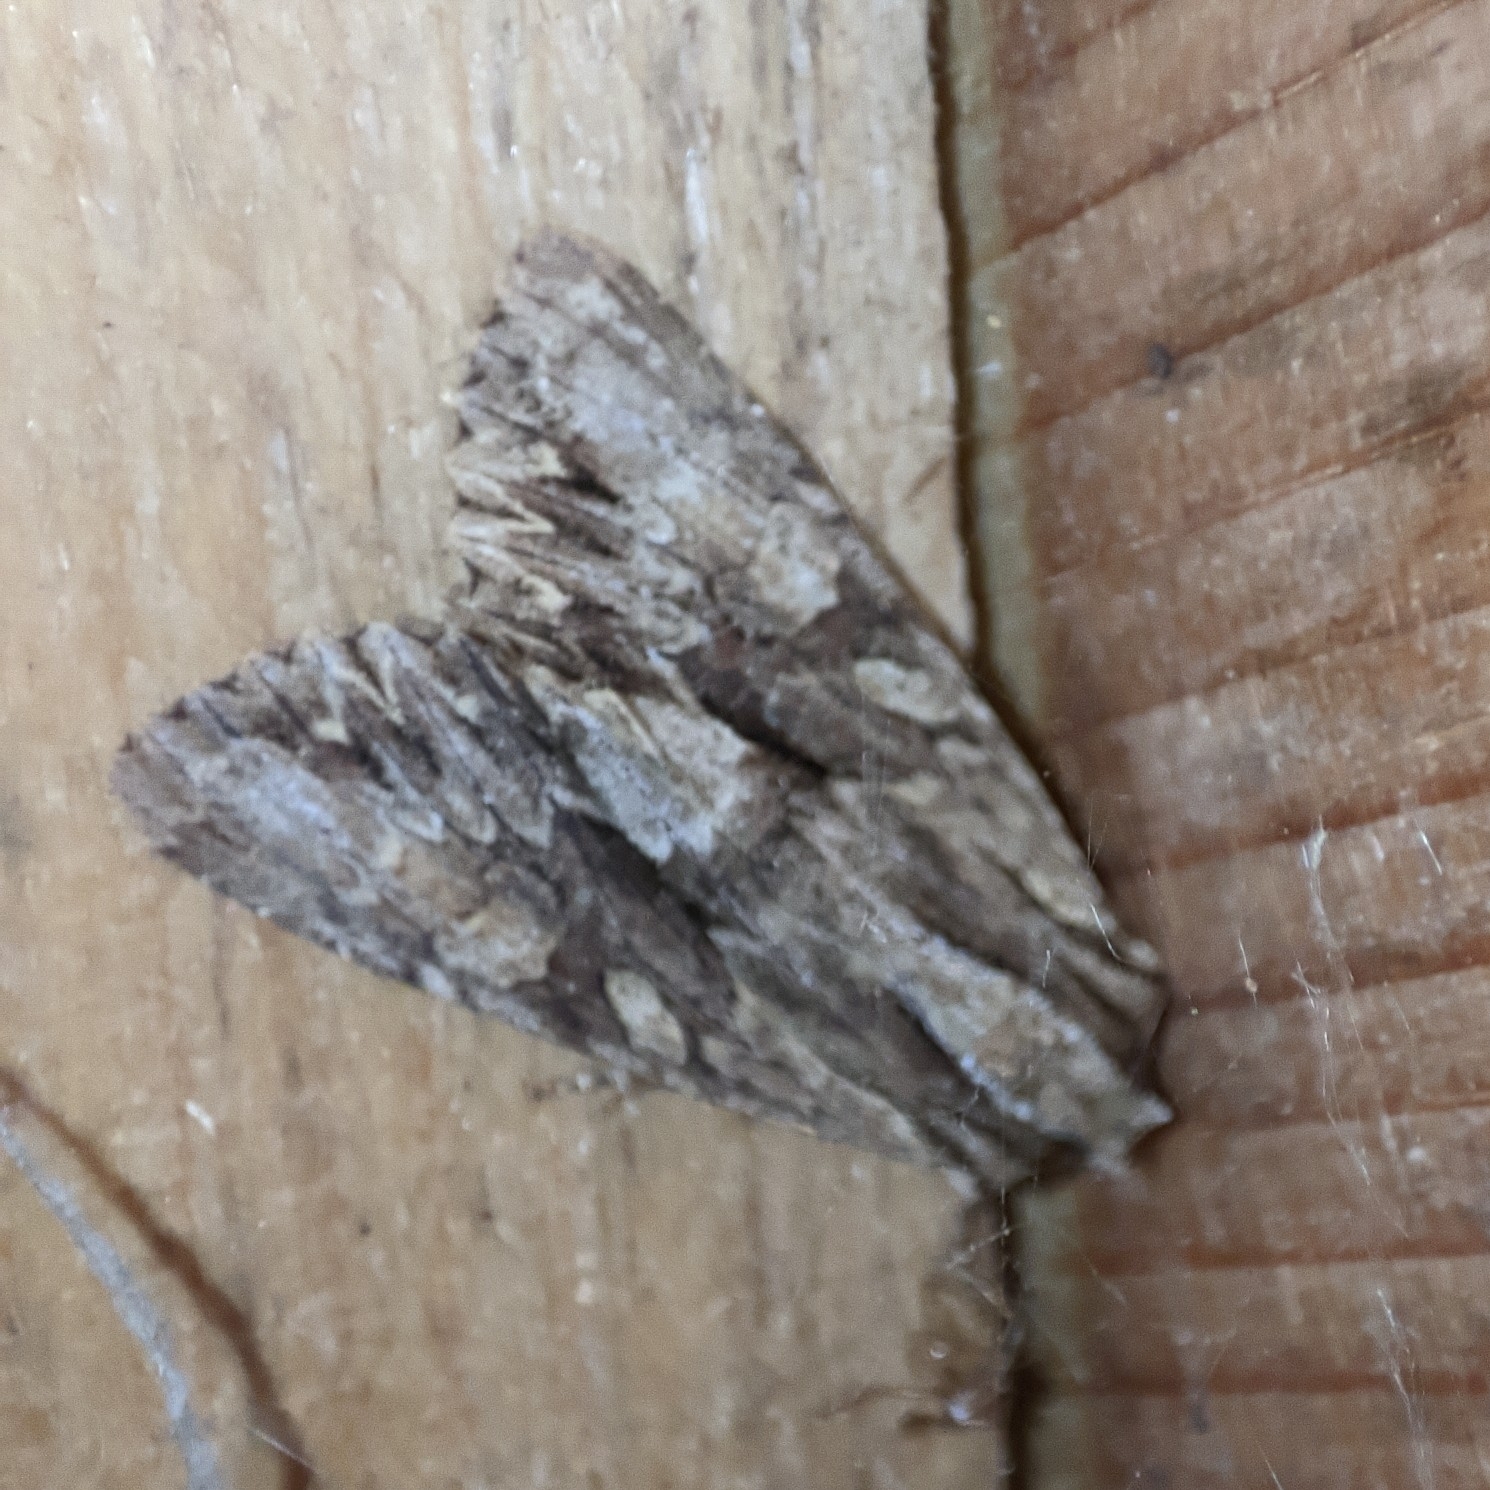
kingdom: Animalia
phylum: Arthropoda
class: Insecta
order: Lepidoptera
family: Noctuidae
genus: Apamea
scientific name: Apamea monoglypha
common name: Dark arches
